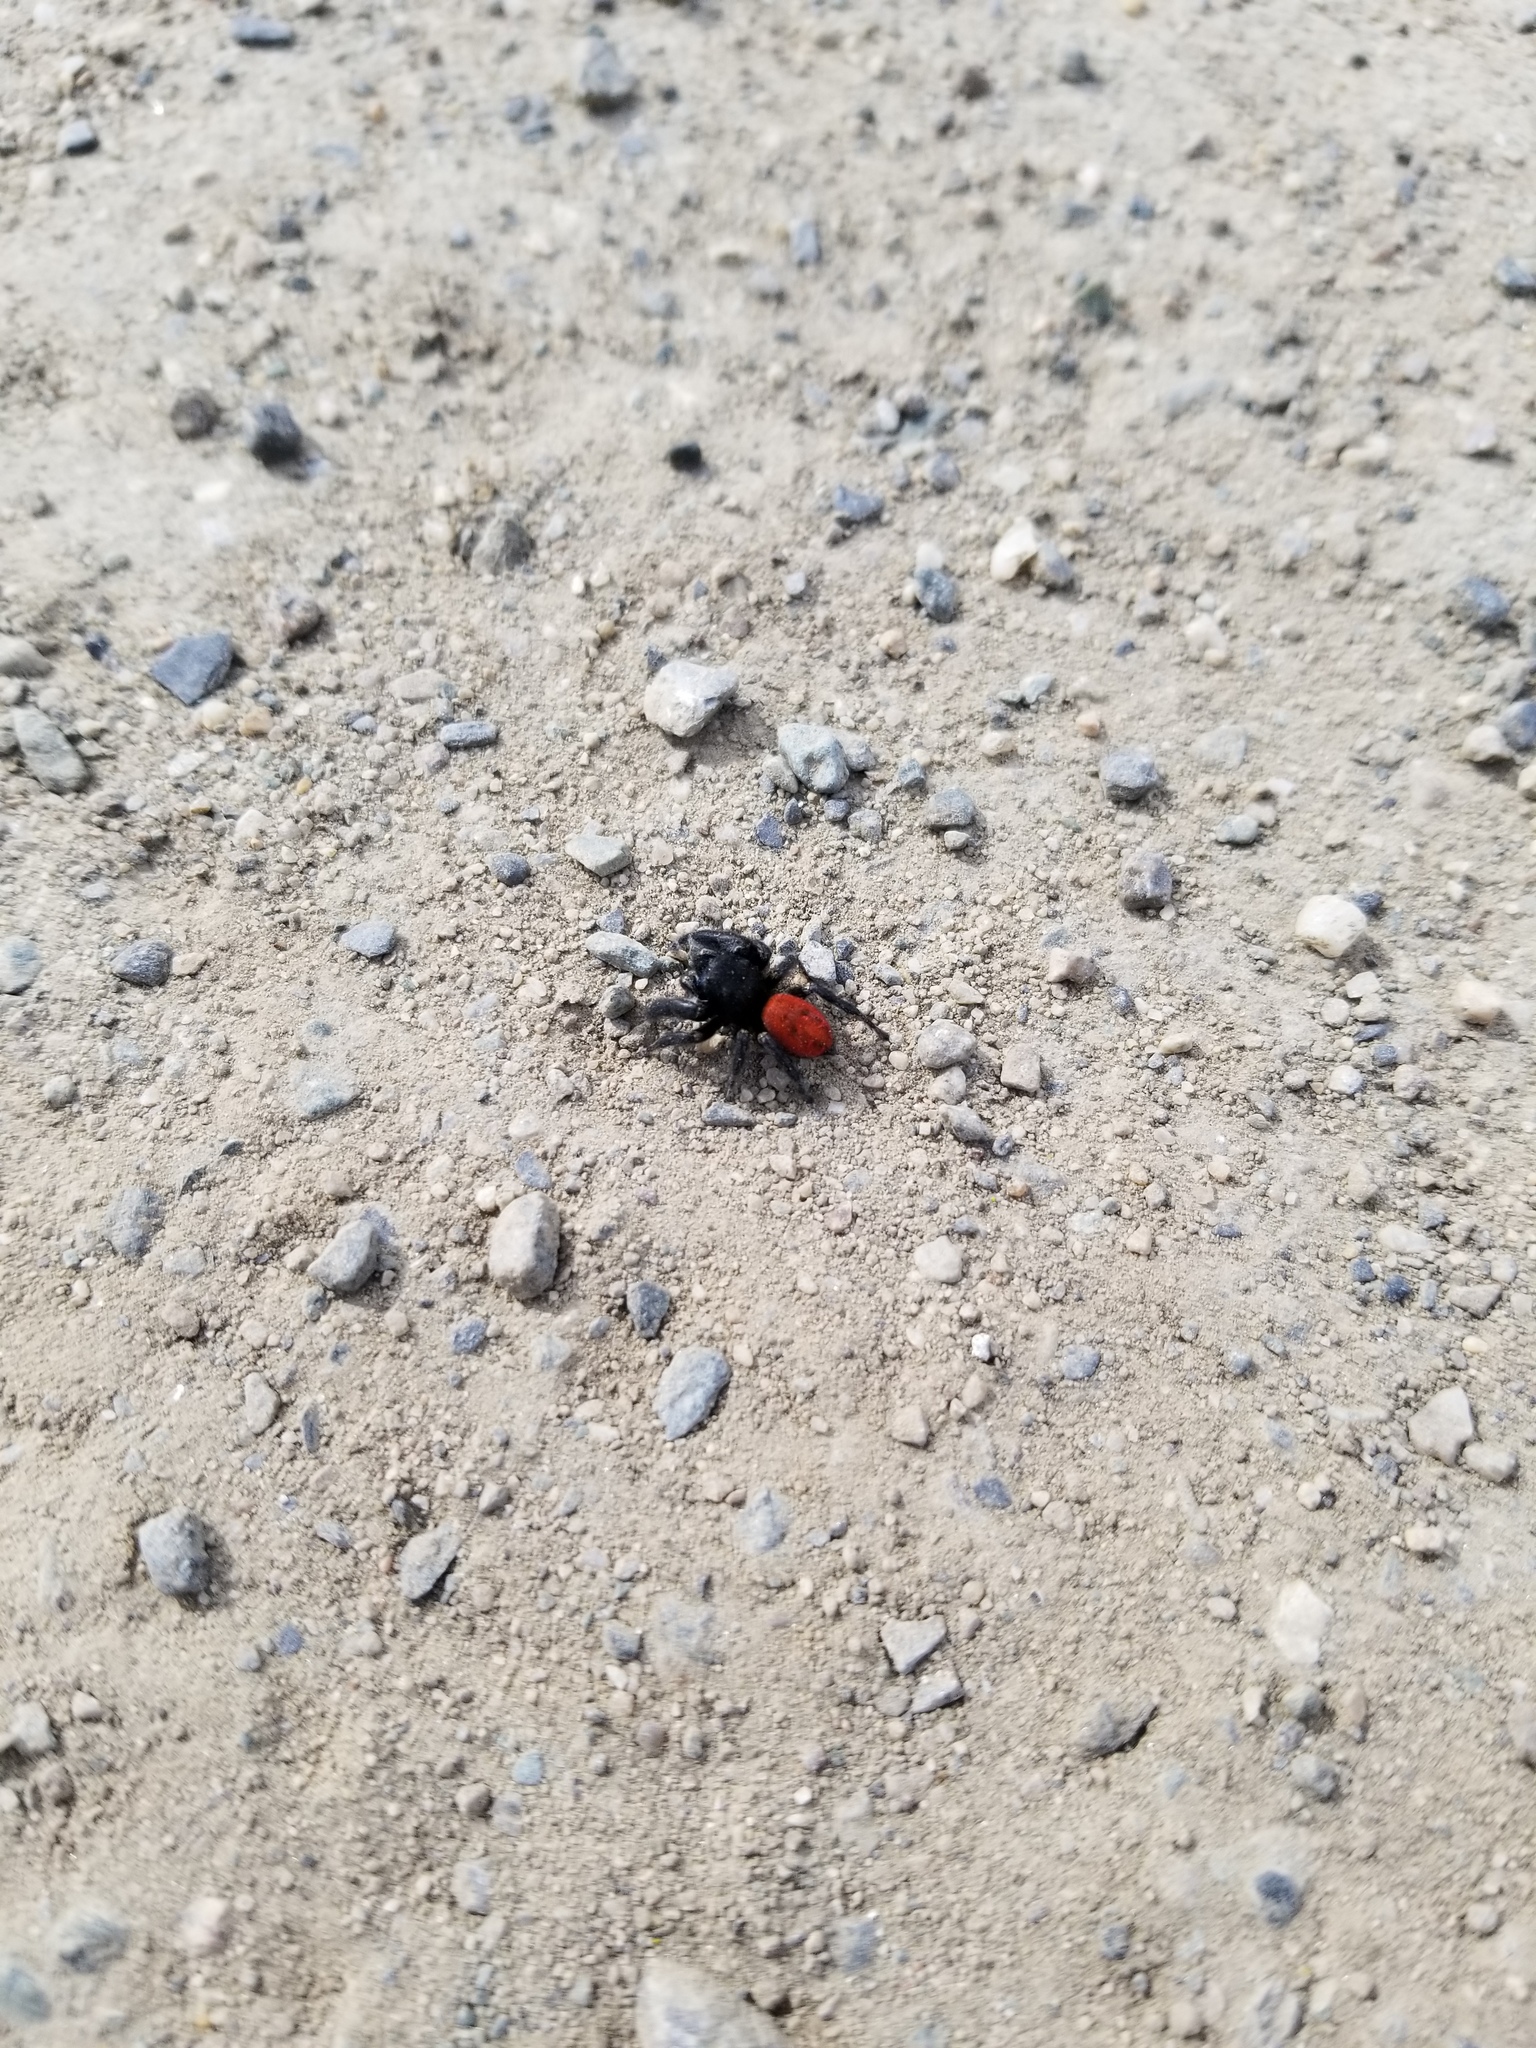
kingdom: Animalia
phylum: Arthropoda
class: Arachnida
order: Araneae
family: Salticidae
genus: Phidippus
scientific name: Phidippus johnsoni
